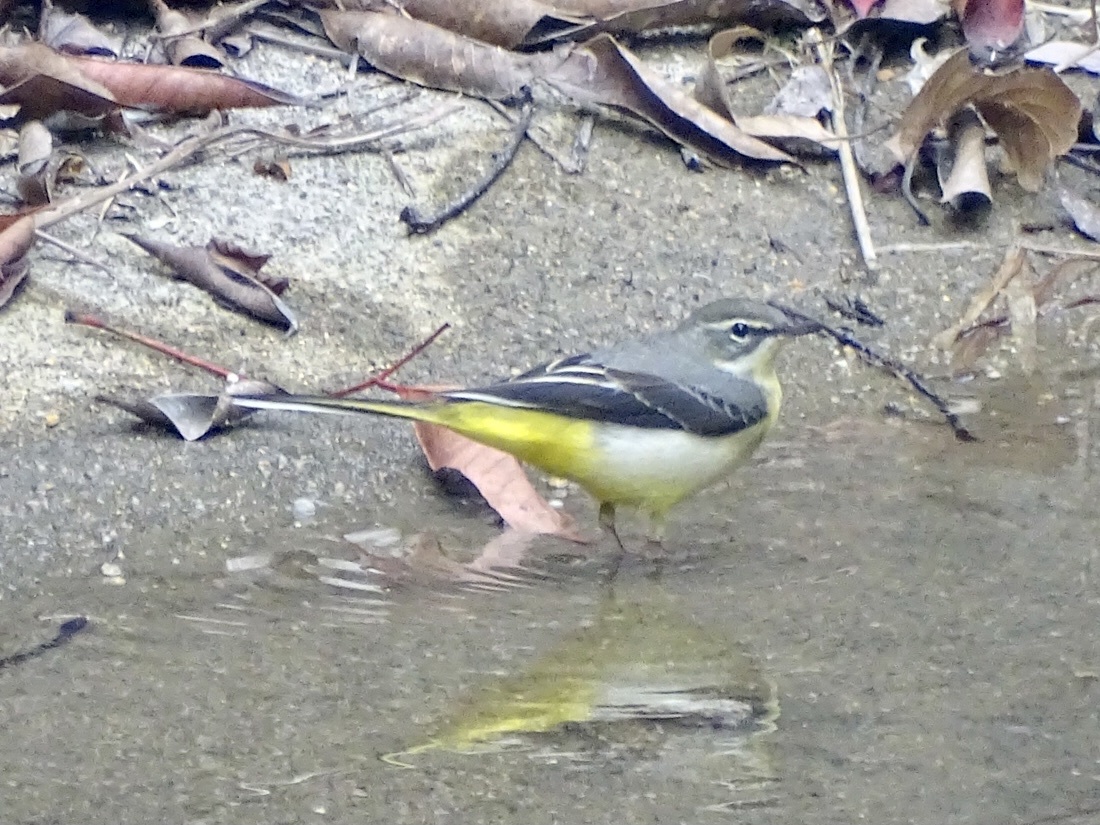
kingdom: Animalia
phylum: Chordata
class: Aves
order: Passeriformes
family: Motacillidae
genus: Motacilla
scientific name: Motacilla cinerea
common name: Grey wagtail
